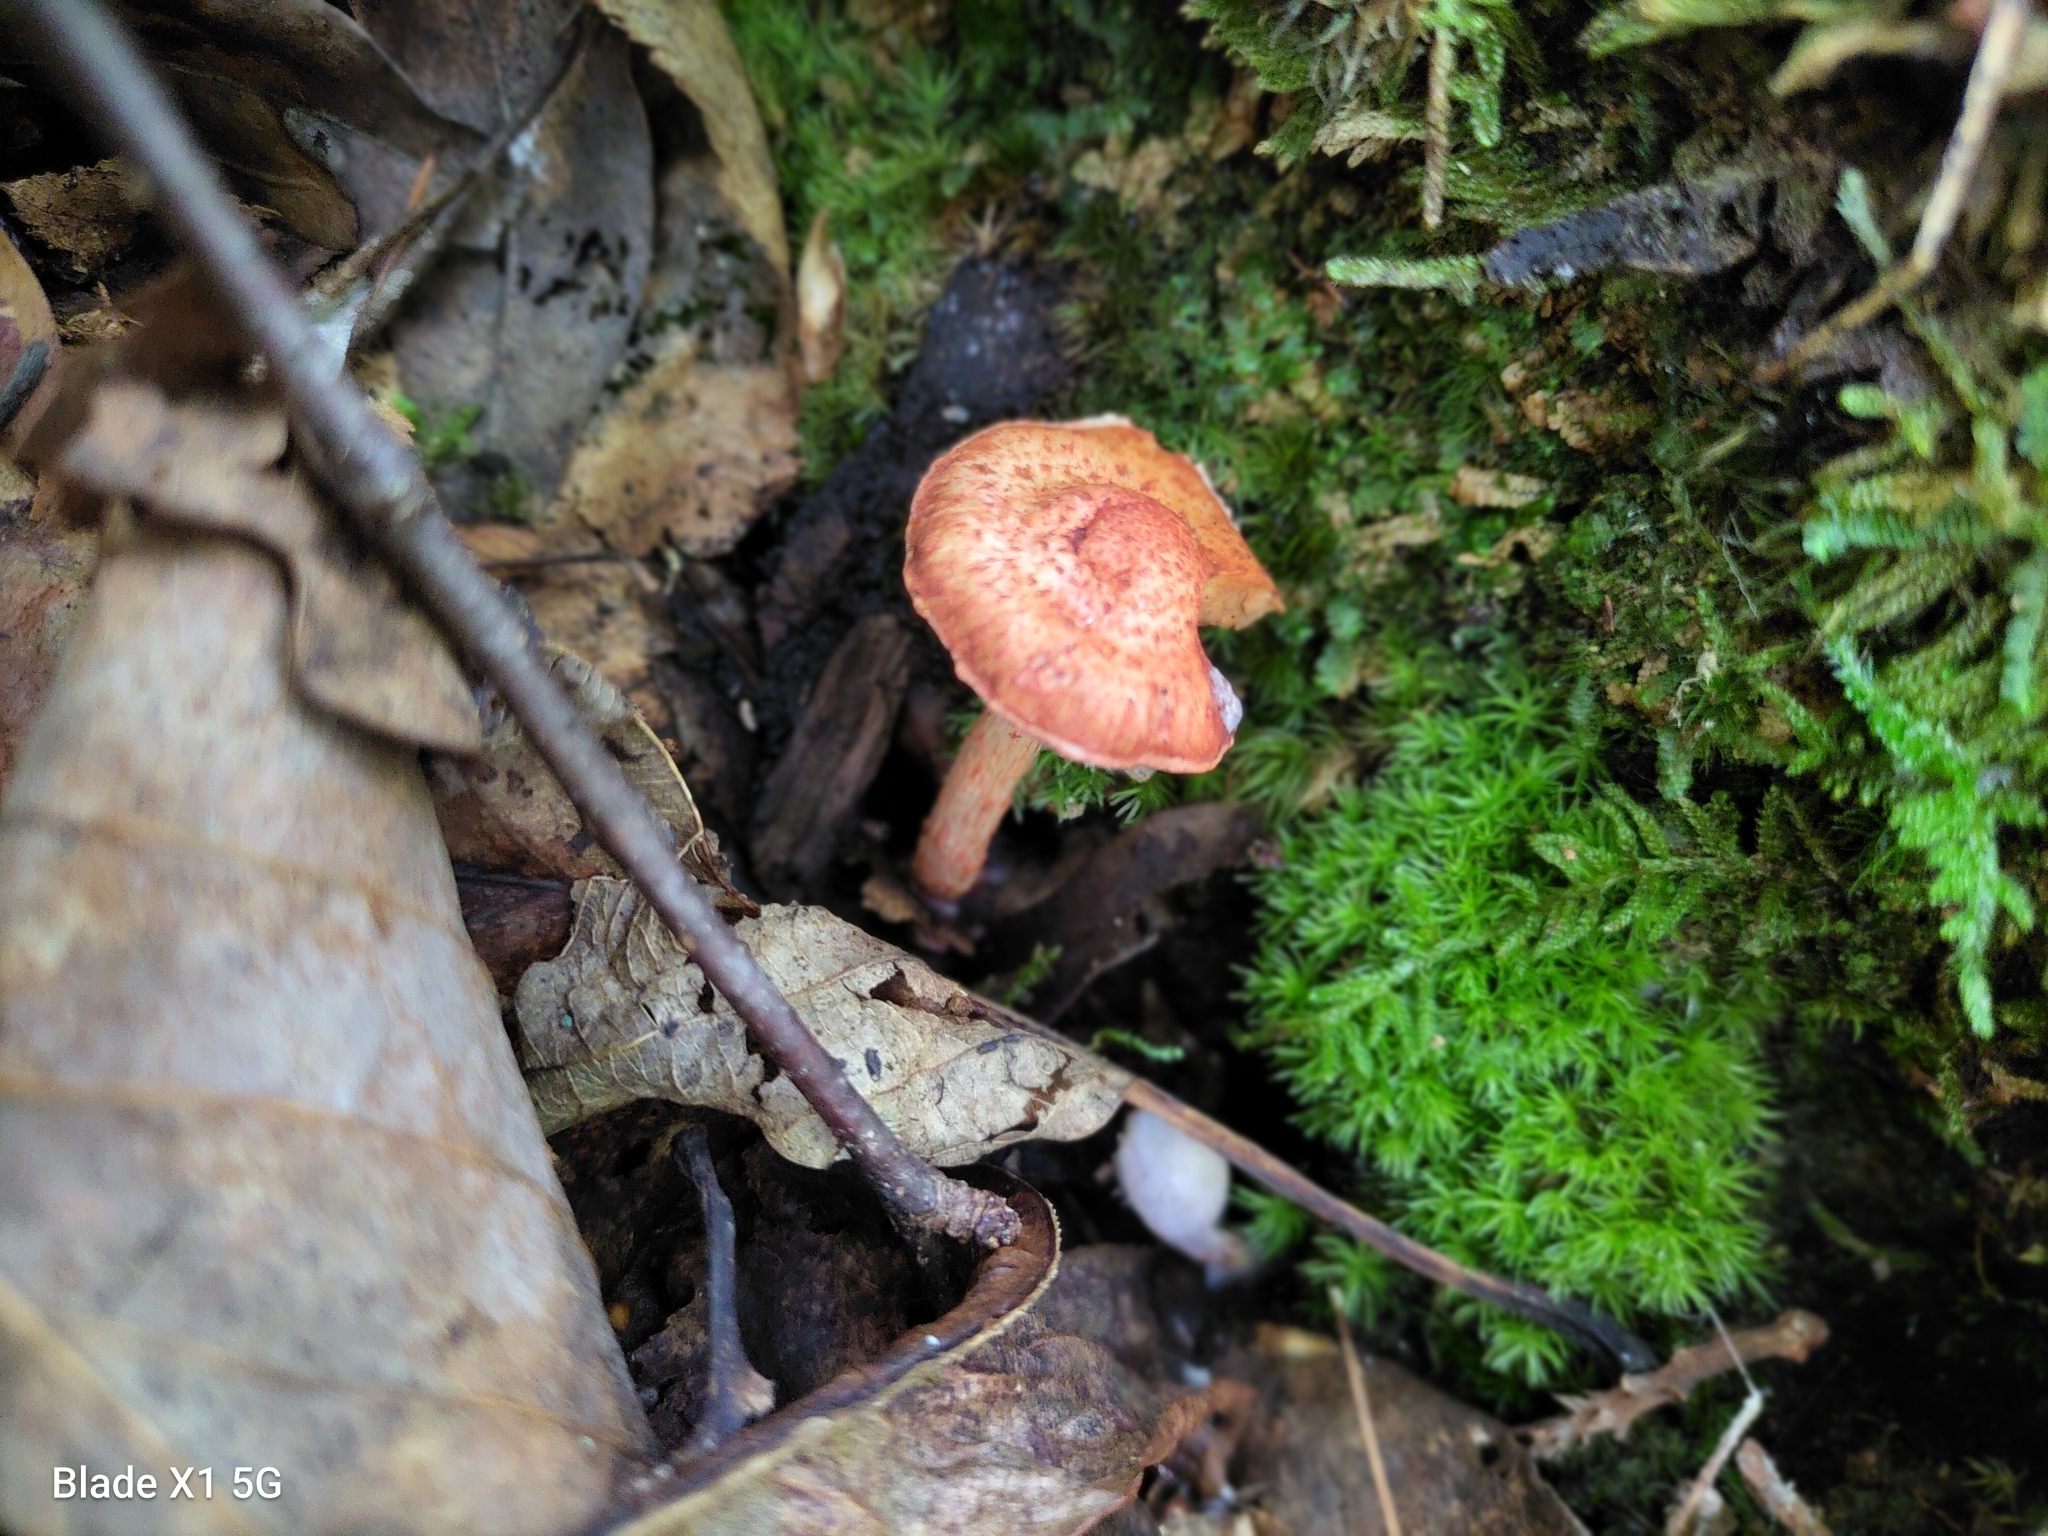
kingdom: Fungi
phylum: Basidiomycota
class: Agaricomycetes
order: Agaricales
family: Cortinariaceae
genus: Cortinarius
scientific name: Cortinarius bolaris
